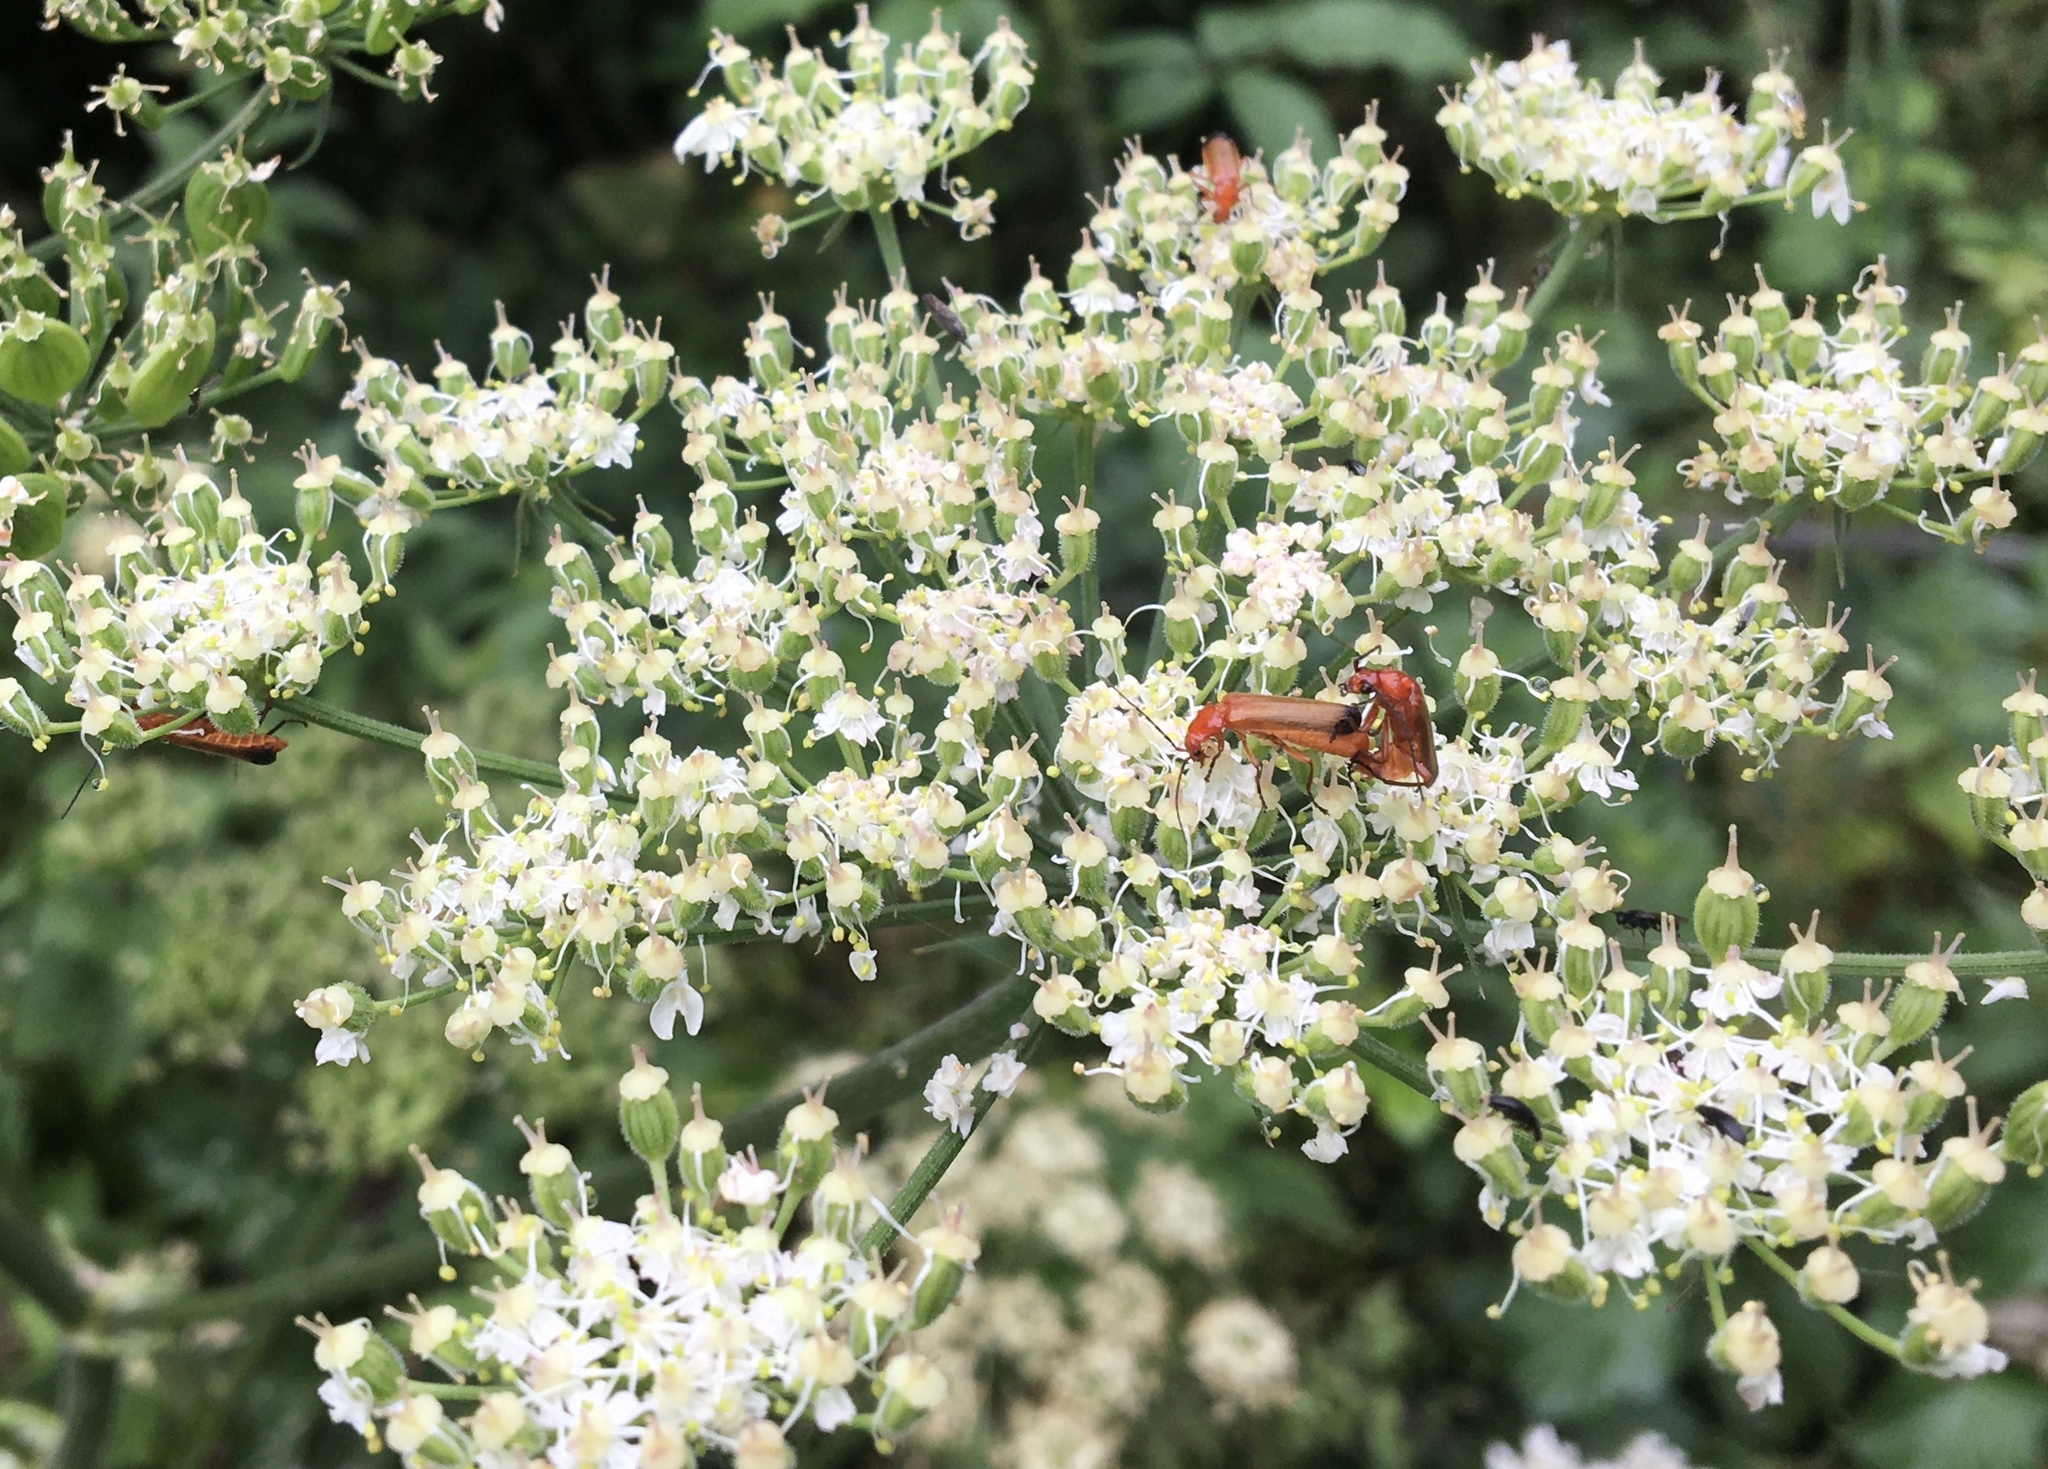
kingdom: Animalia
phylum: Arthropoda
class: Insecta
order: Coleoptera
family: Cantharidae
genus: Rhagonycha
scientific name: Rhagonycha fulva
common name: Common red soldier beetle
